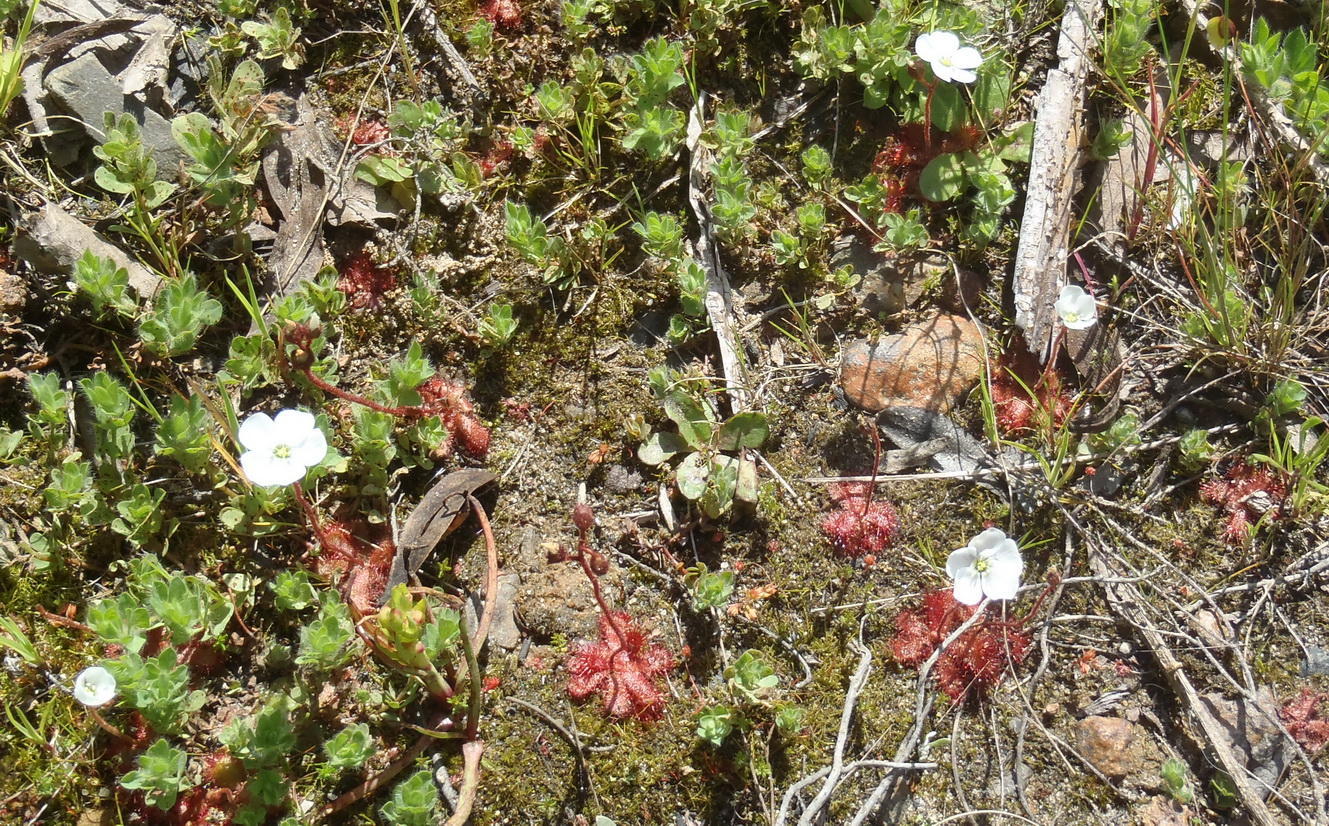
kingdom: Plantae
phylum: Tracheophyta
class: Magnoliopsida
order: Caryophyllales
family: Droseraceae
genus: Drosera
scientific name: Drosera trinervia
